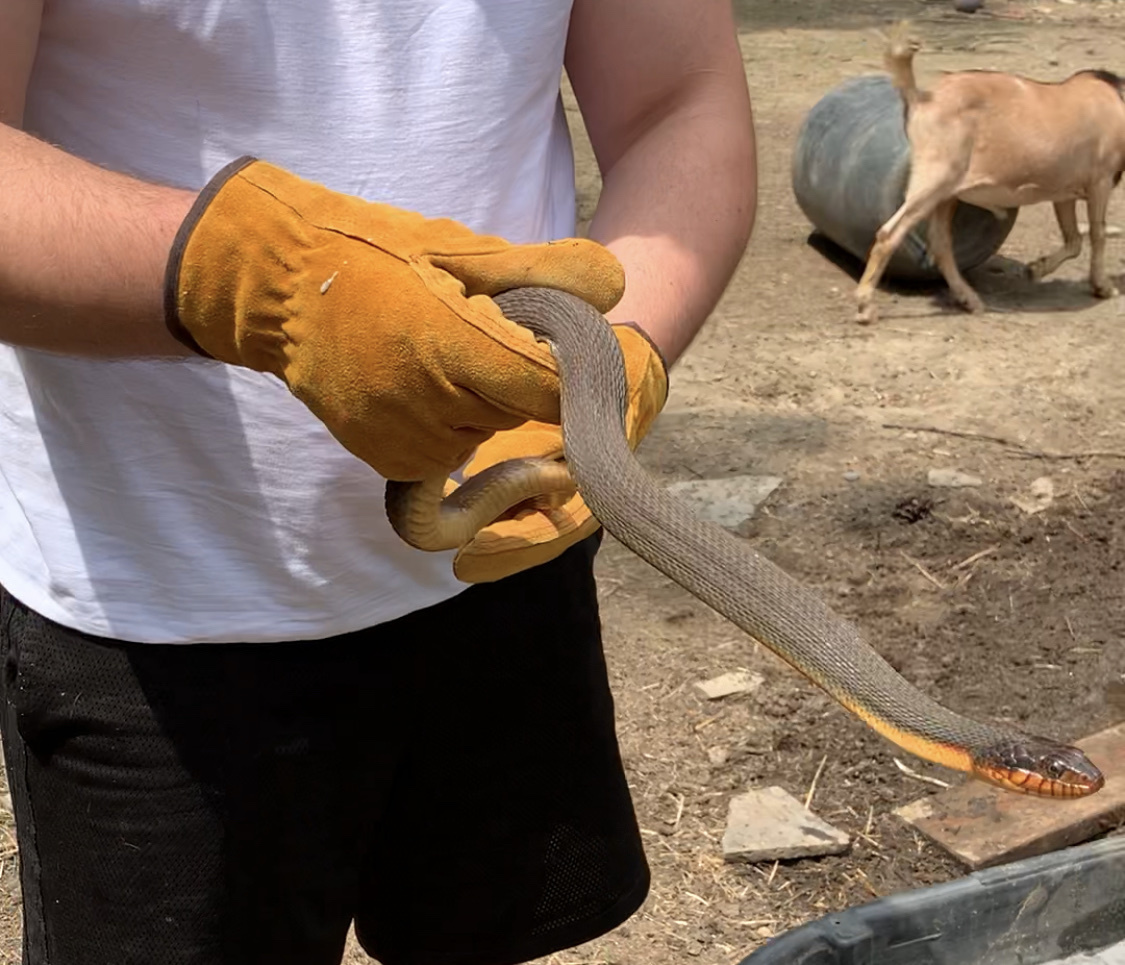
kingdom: Animalia
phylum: Chordata
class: Squamata
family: Colubridae
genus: Nerodia
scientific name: Nerodia erythrogaster
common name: Plainbelly water snake
